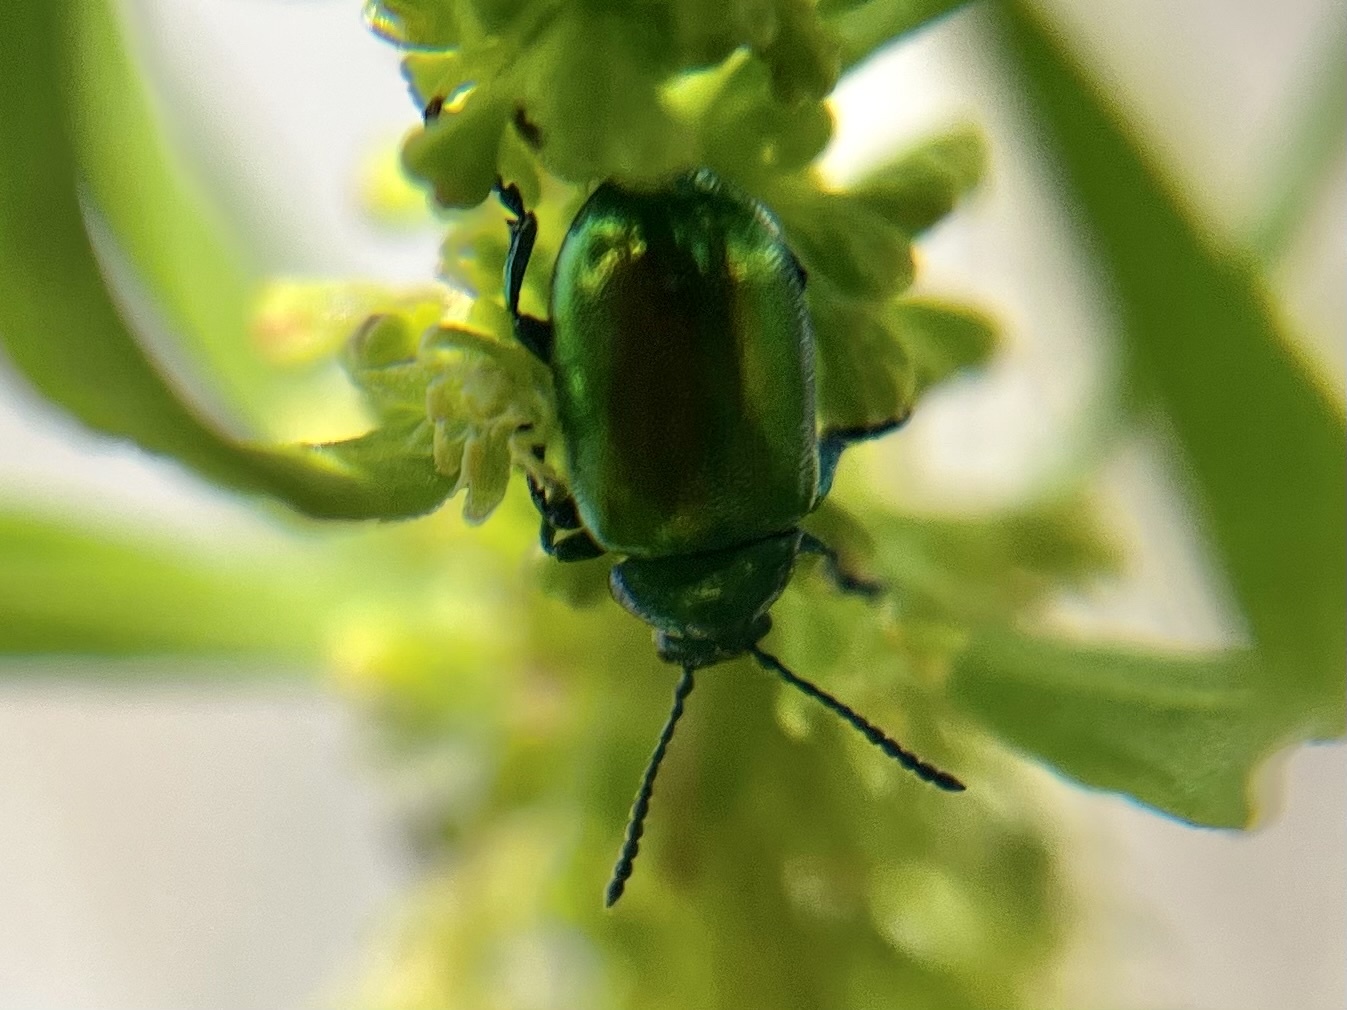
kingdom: Animalia
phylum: Arthropoda
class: Insecta
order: Coleoptera
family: Chrysomelidae
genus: Gastrophysa
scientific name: Gastrophysa viridula
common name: Green dock beetle
